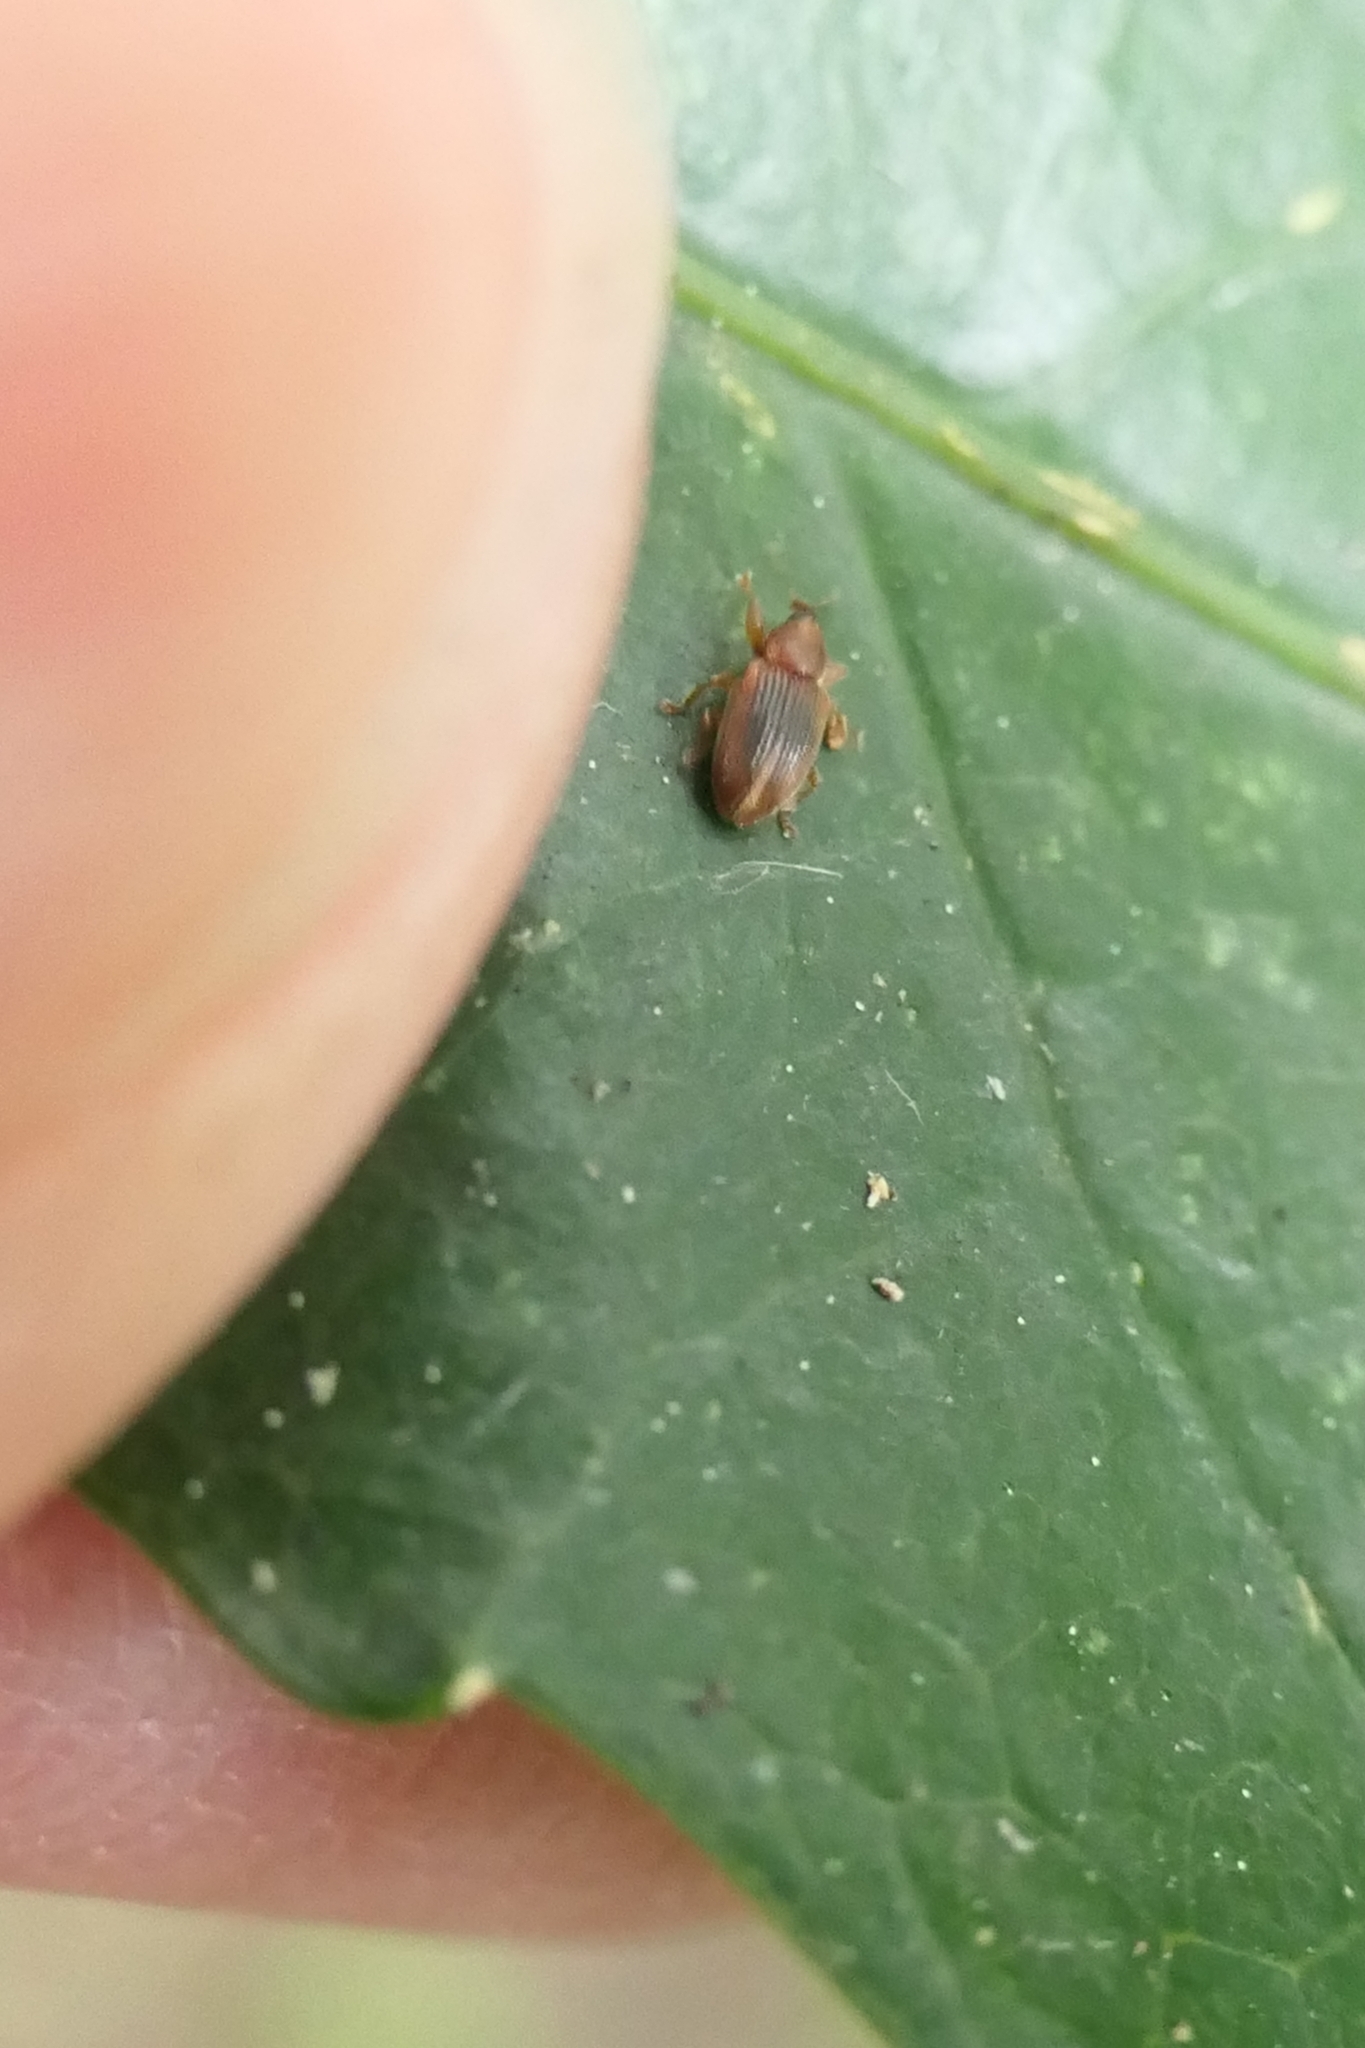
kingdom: Animalia
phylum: Arthropoda
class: Insecta
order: Coleoptera
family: Curculionidae
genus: Aneuma
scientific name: Aneuma
